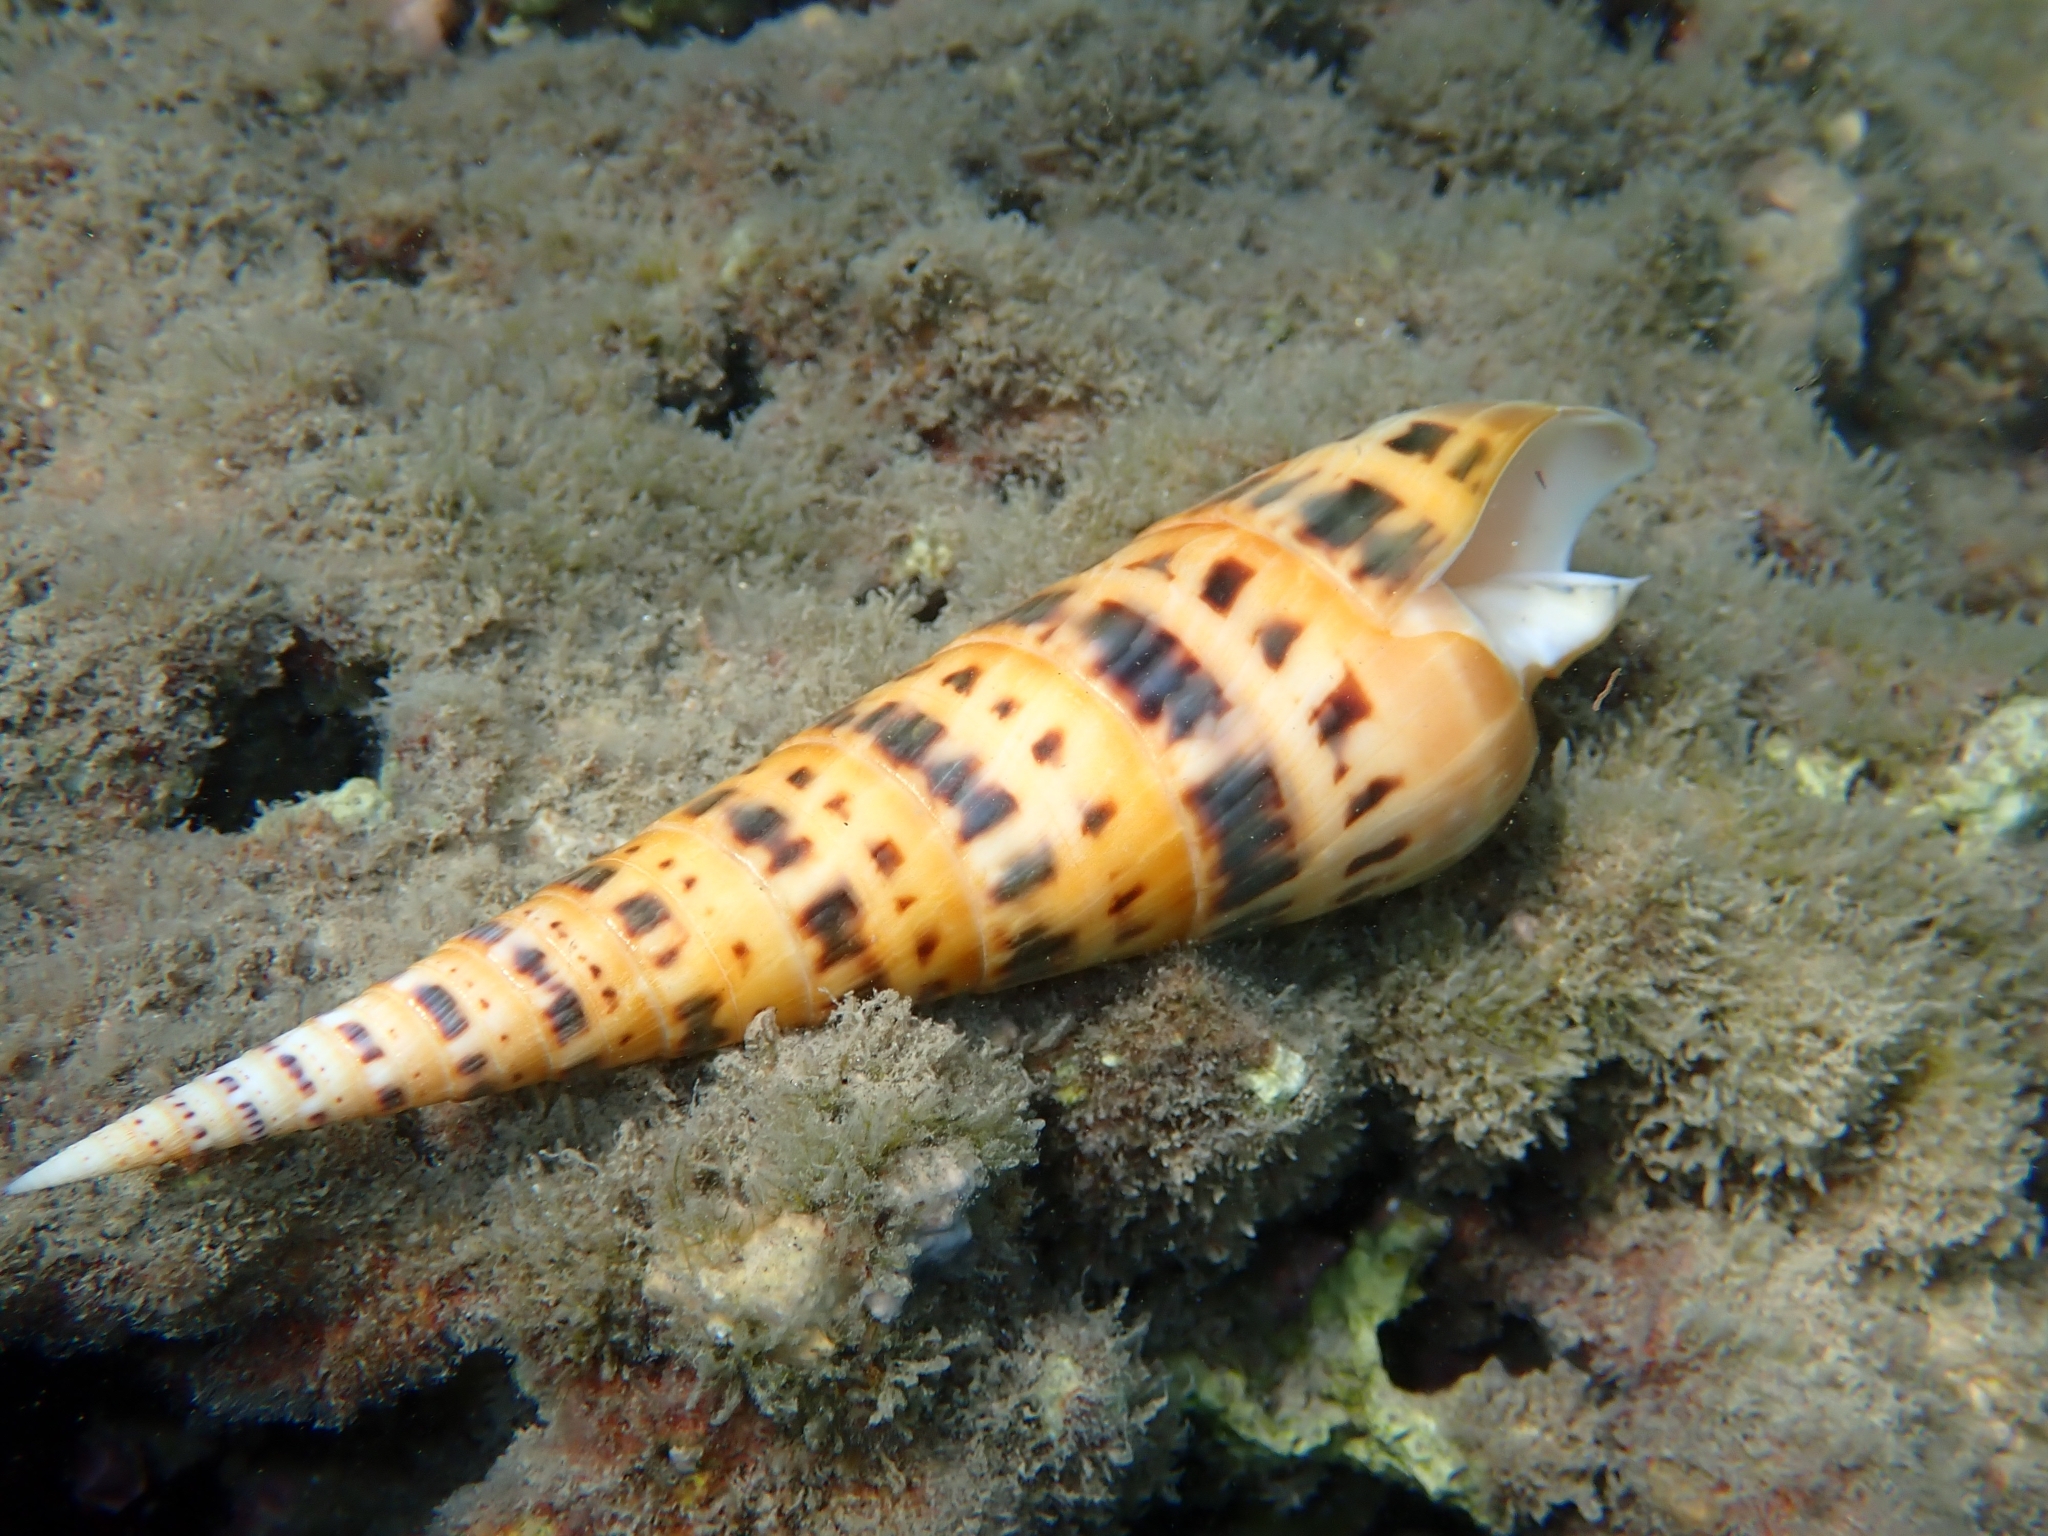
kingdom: Animalia
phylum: Mollusca
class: Gastropoda
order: Neogastropoda
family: Terebridae
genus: Oxymeris
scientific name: Oxymeris maculata
